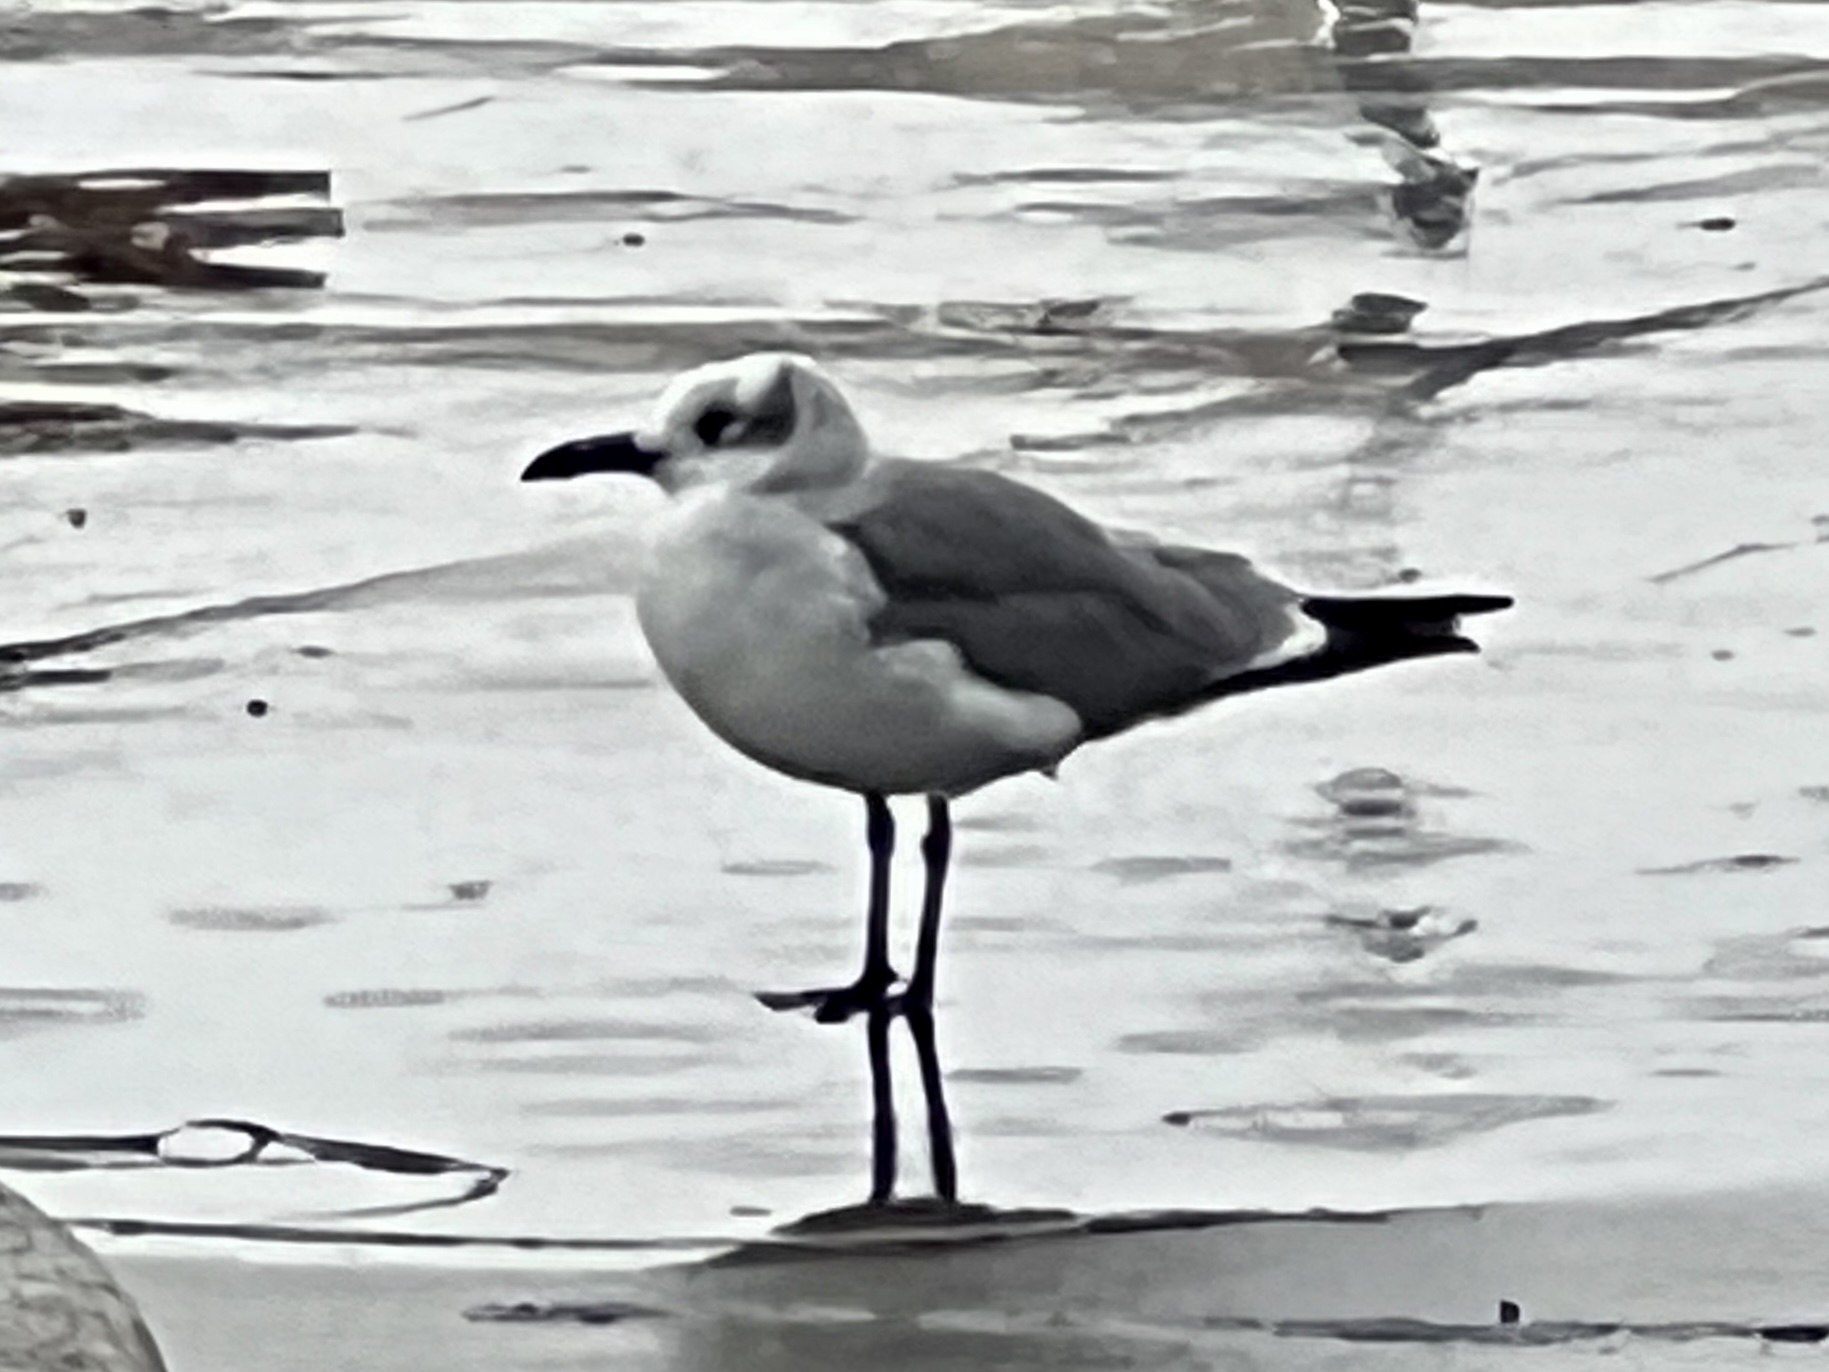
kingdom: Animalia
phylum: Chordata
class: Aves
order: Charadriiformes
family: Laridae
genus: Leucophaeus
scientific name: Leucophaeus atricilla
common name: Laughing gull
